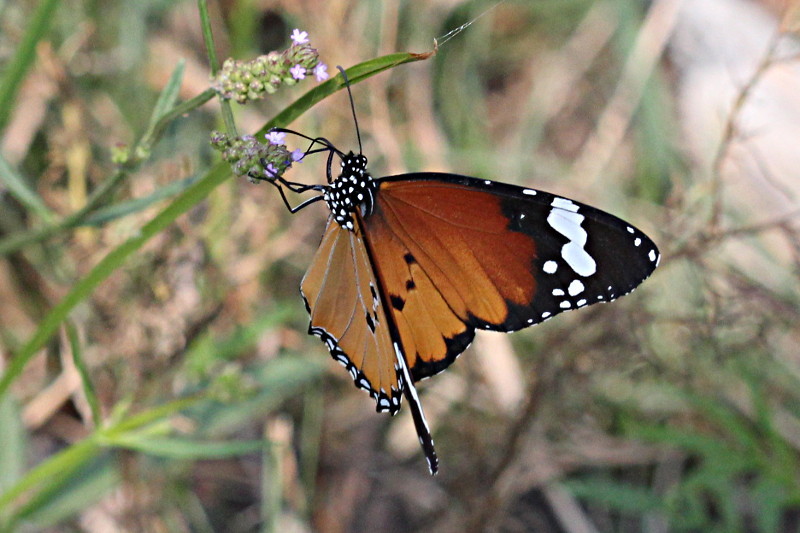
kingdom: Animalia
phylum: Arthropoda
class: Insecta
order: Lepidoptera
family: Nymphalidae
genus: Danaus
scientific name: Danaus chrysippus
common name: Plain tiger
